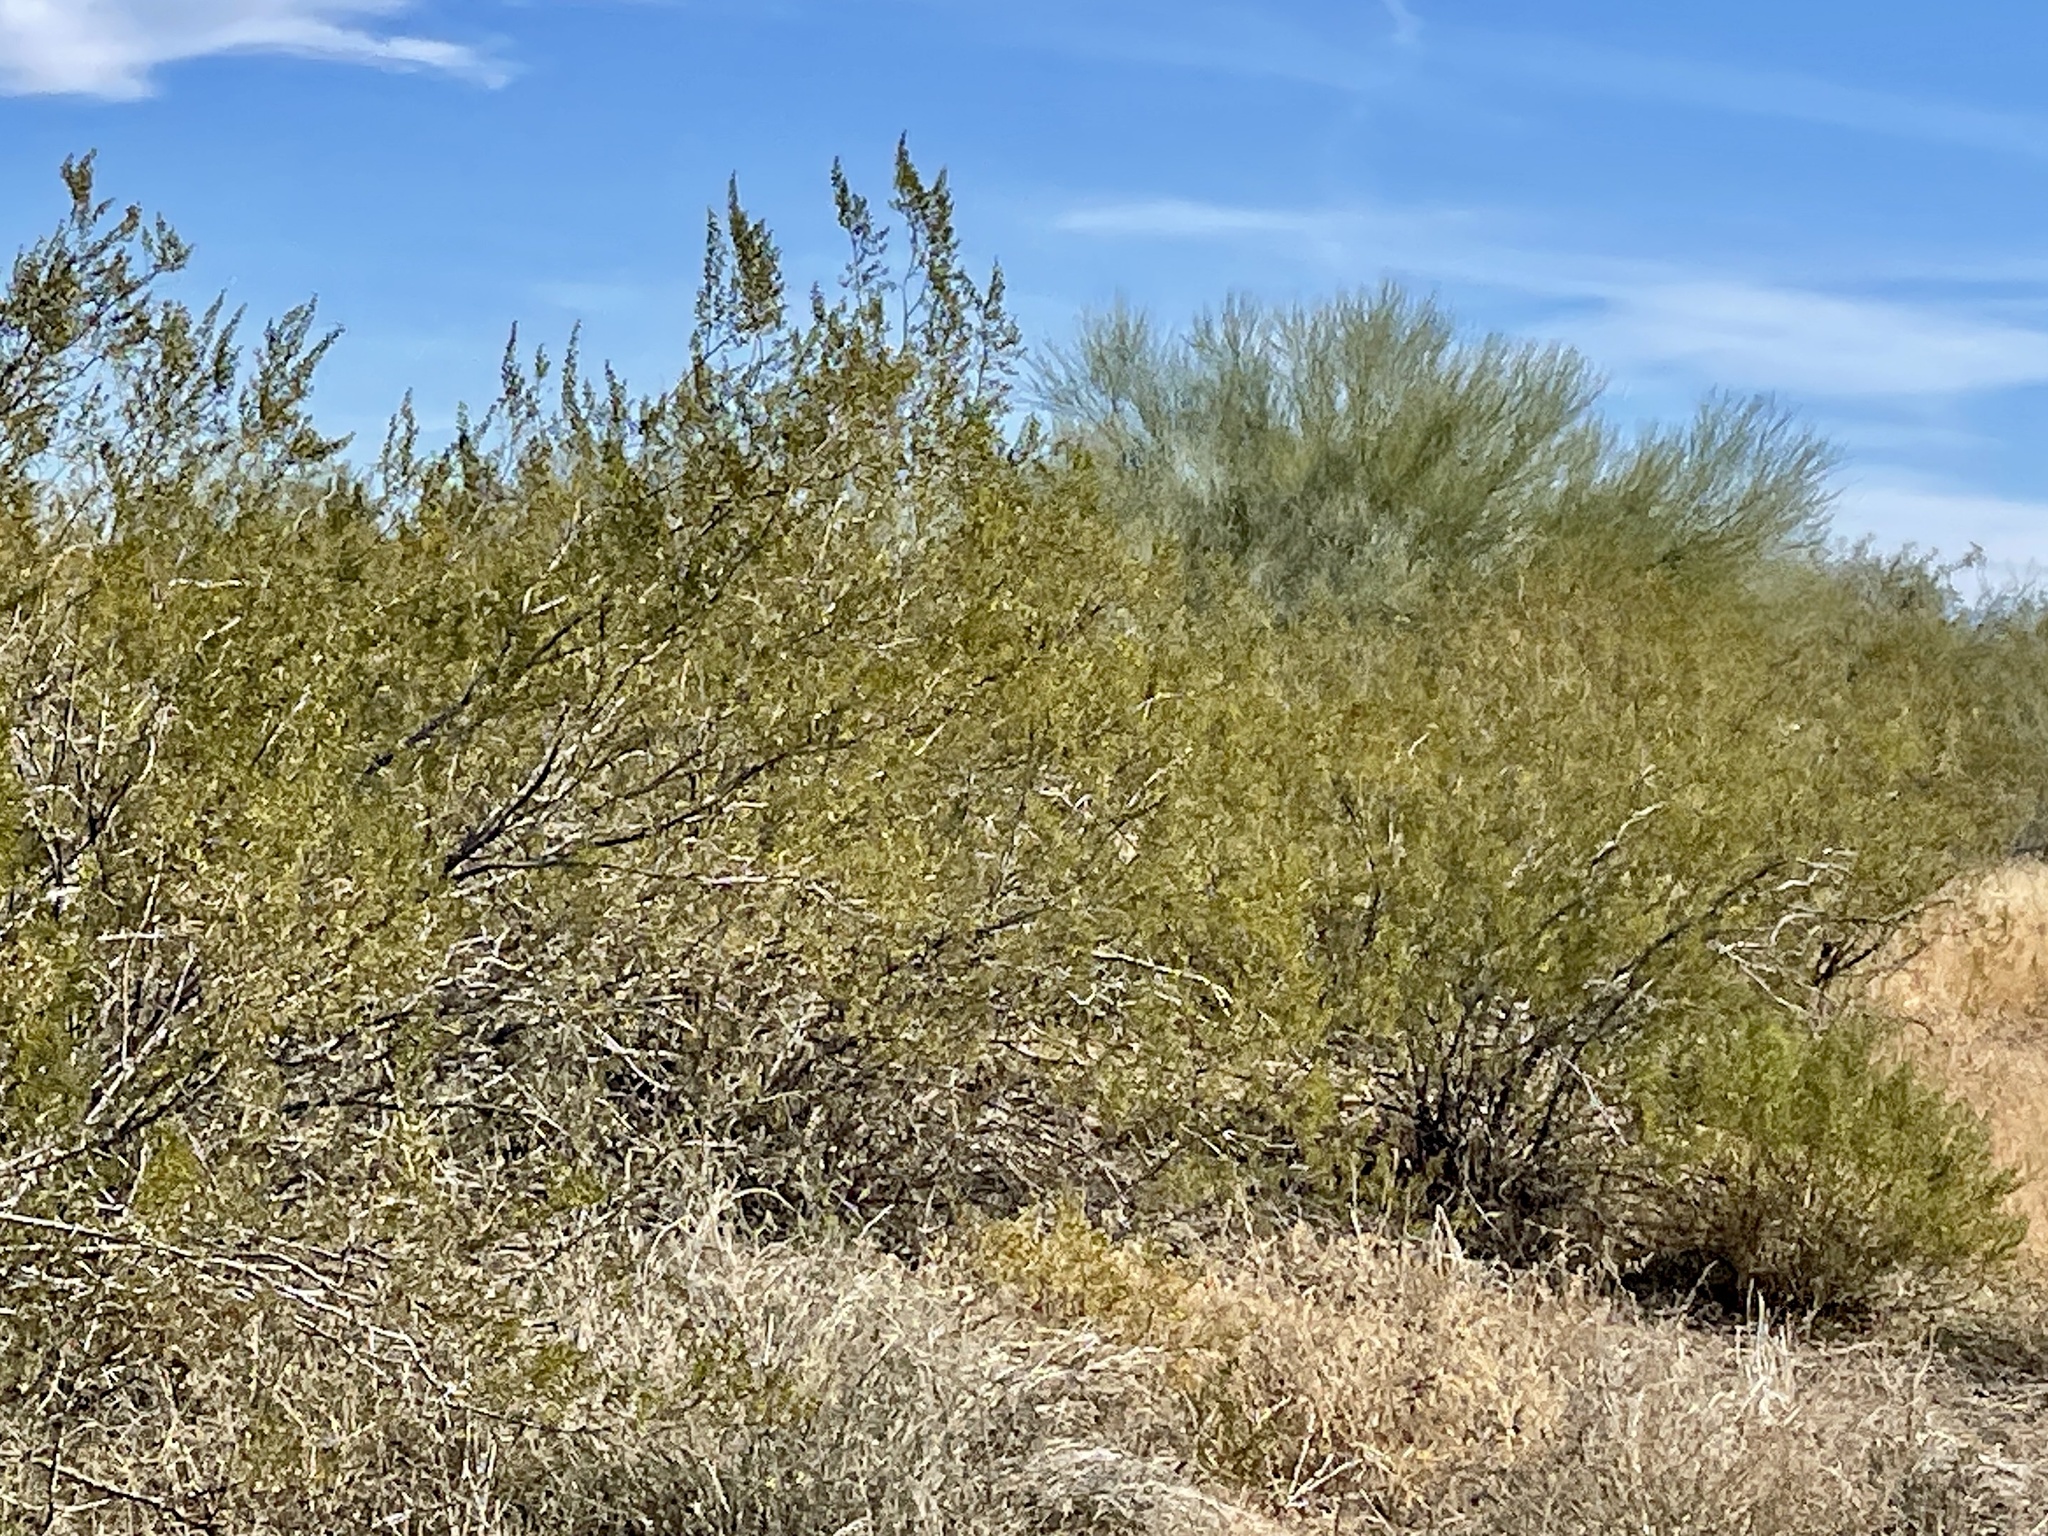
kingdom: Plantae
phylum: Tracheophyta
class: Magnoliopsida
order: Zygophyllales
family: Zygophyllaceae
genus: Larrea
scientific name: Larrea tridentata
